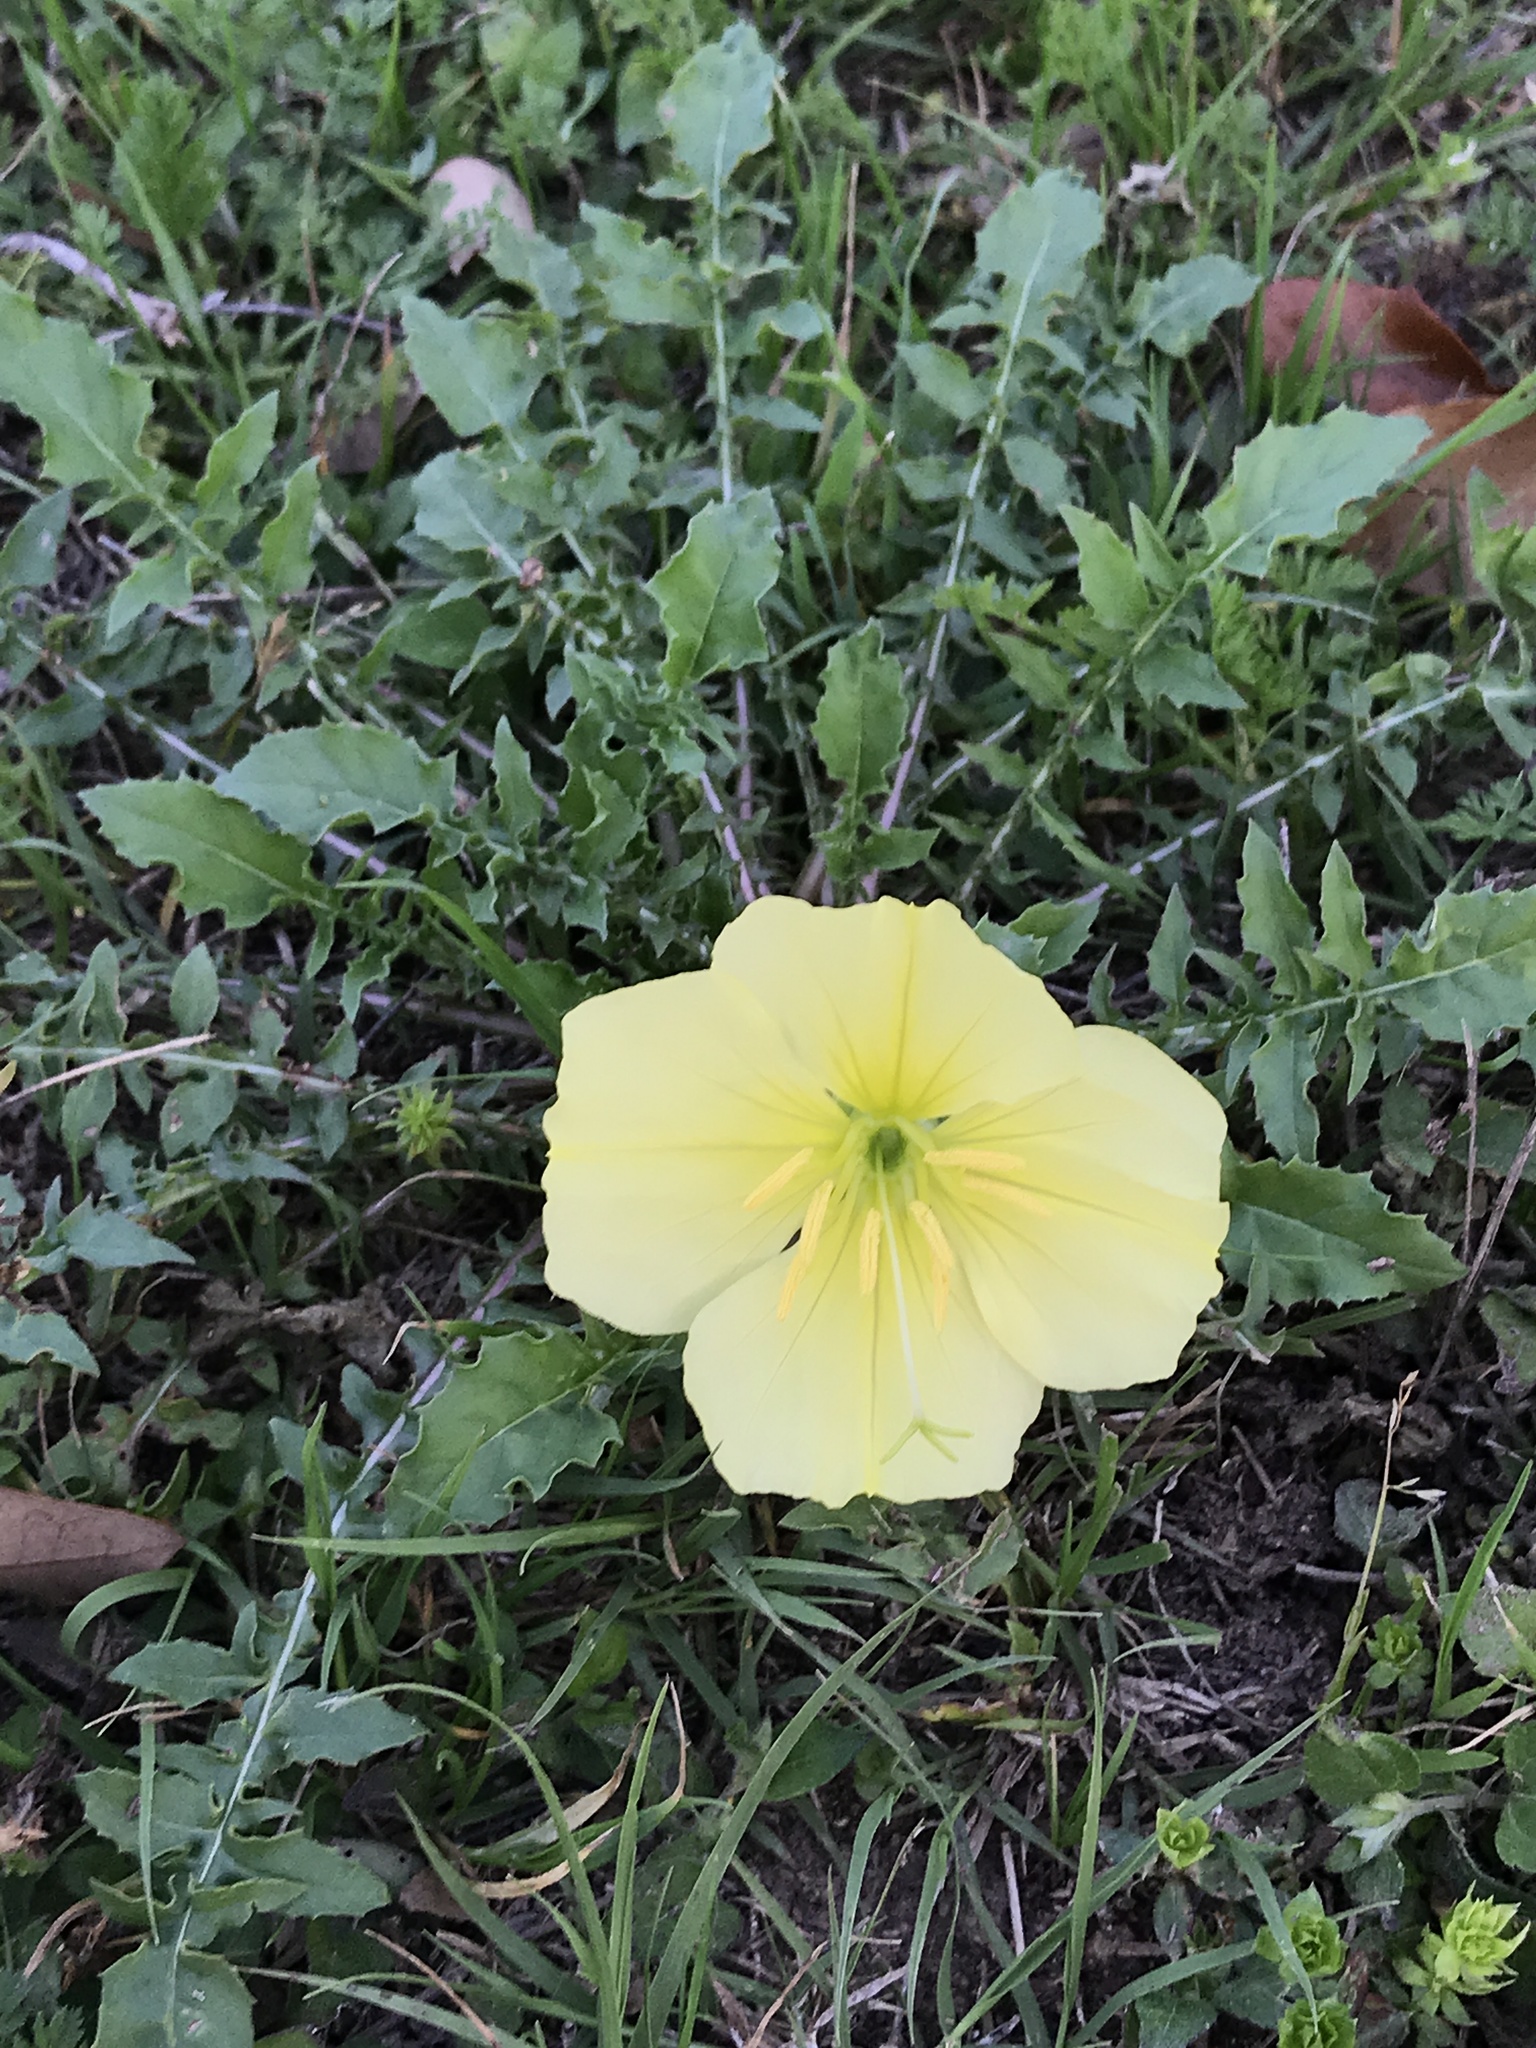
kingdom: Plantae
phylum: Tracheophyta
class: Magnoliopsida
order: Myrtales
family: Onagraceae
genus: Oenothera
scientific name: Oenothera triloba
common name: Sessile evening-primrose
